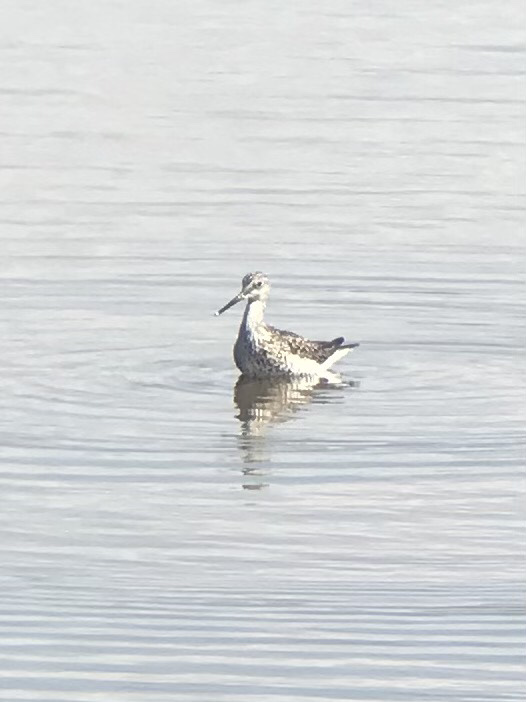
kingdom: Animalia
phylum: Chordata
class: Aves
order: Charadriiformes
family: Scolopacidae
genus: Tringa
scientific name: Tringa melanoleuca
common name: Greater yellowlegs
